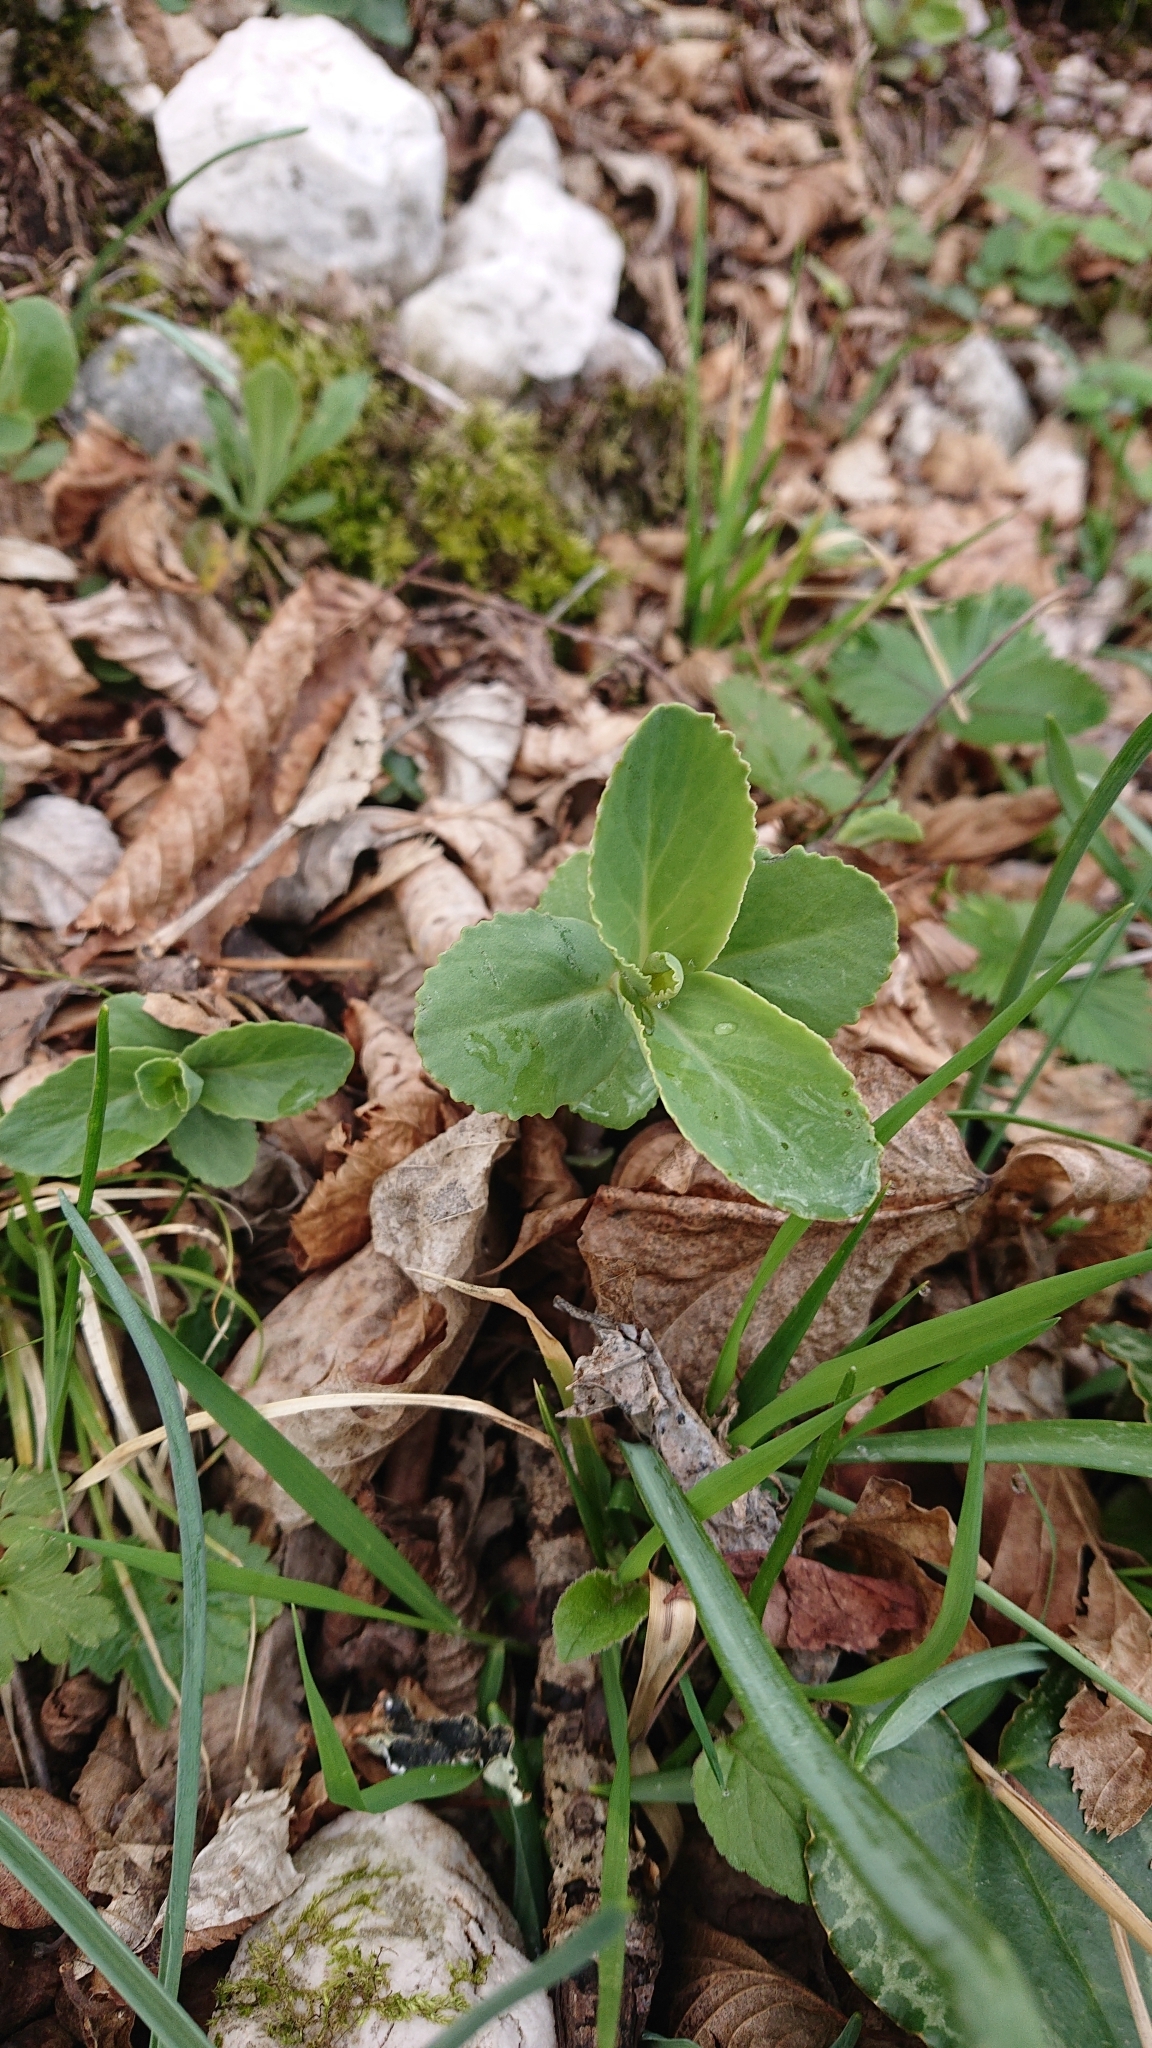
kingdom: Plantae
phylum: Tracheophyta
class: Magnoliopsida
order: Saxifragales
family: Crassulaceae
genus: Hylotelephium
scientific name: Hylotelephium maximum
